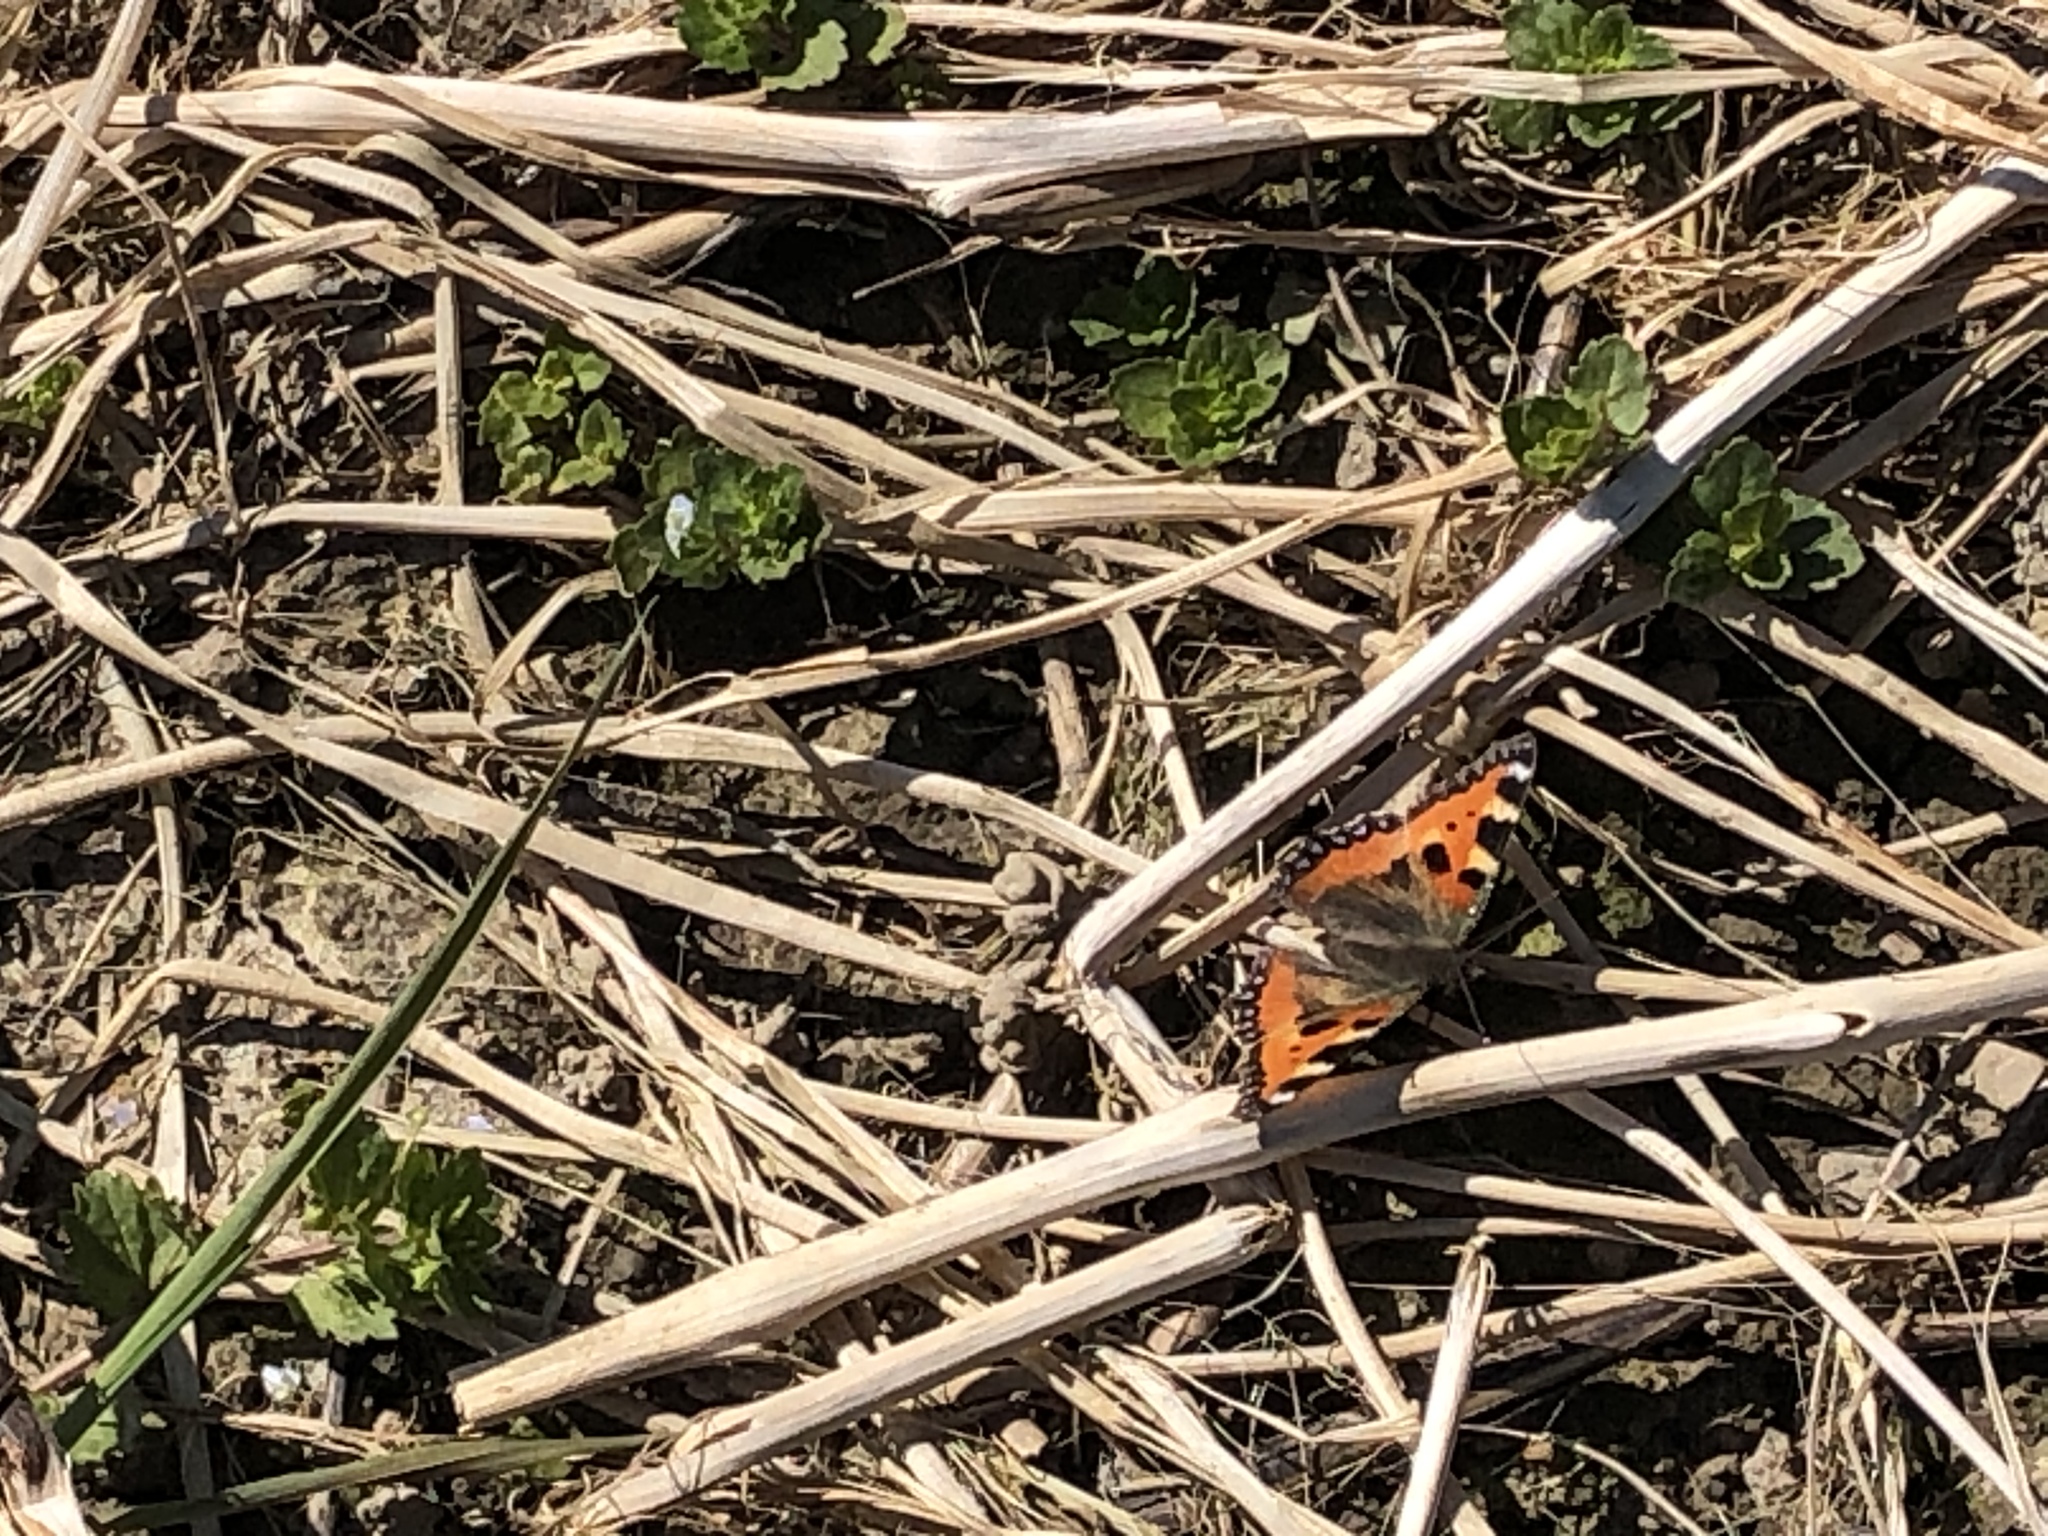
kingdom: Animalia
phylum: Arthropoda
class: Insecta
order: Lepidoptera
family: Nymphalidae
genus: Aglais
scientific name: Aglais urticae
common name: Small tortoiseshell
